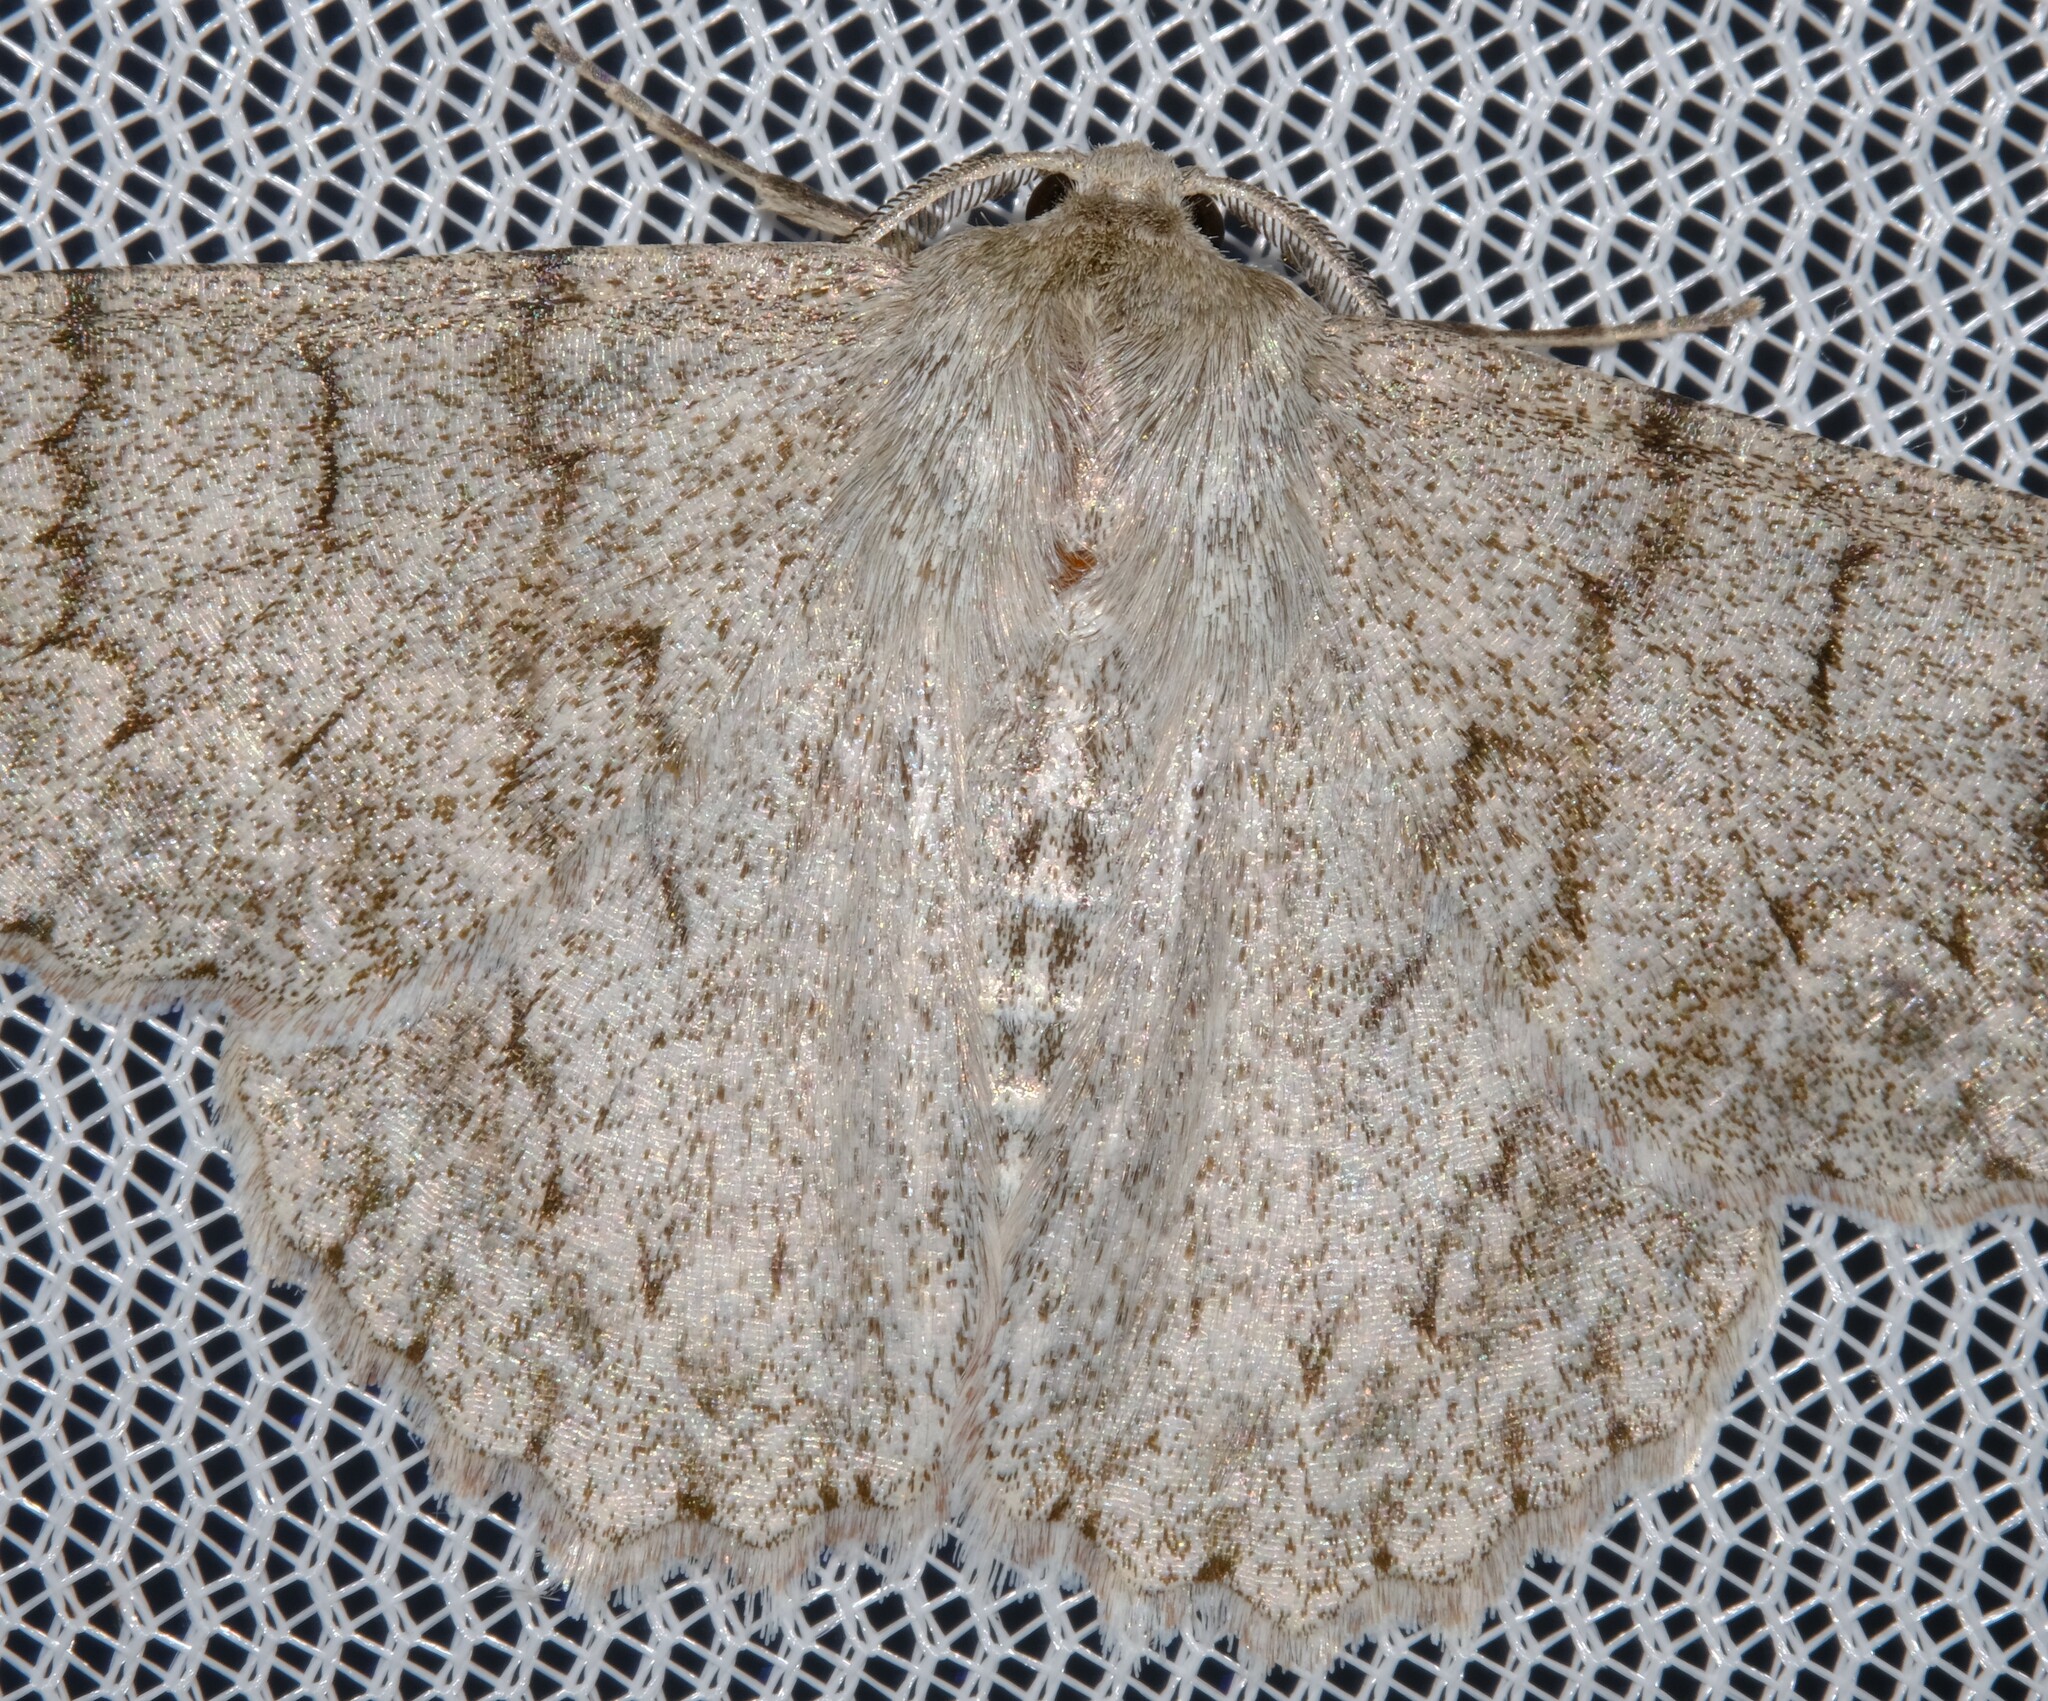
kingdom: Animalia
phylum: Arthropoda
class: Insecta
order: Lepidoptera
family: Geometridae
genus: Crypsiphona
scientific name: Crypsiphona ocultaria
